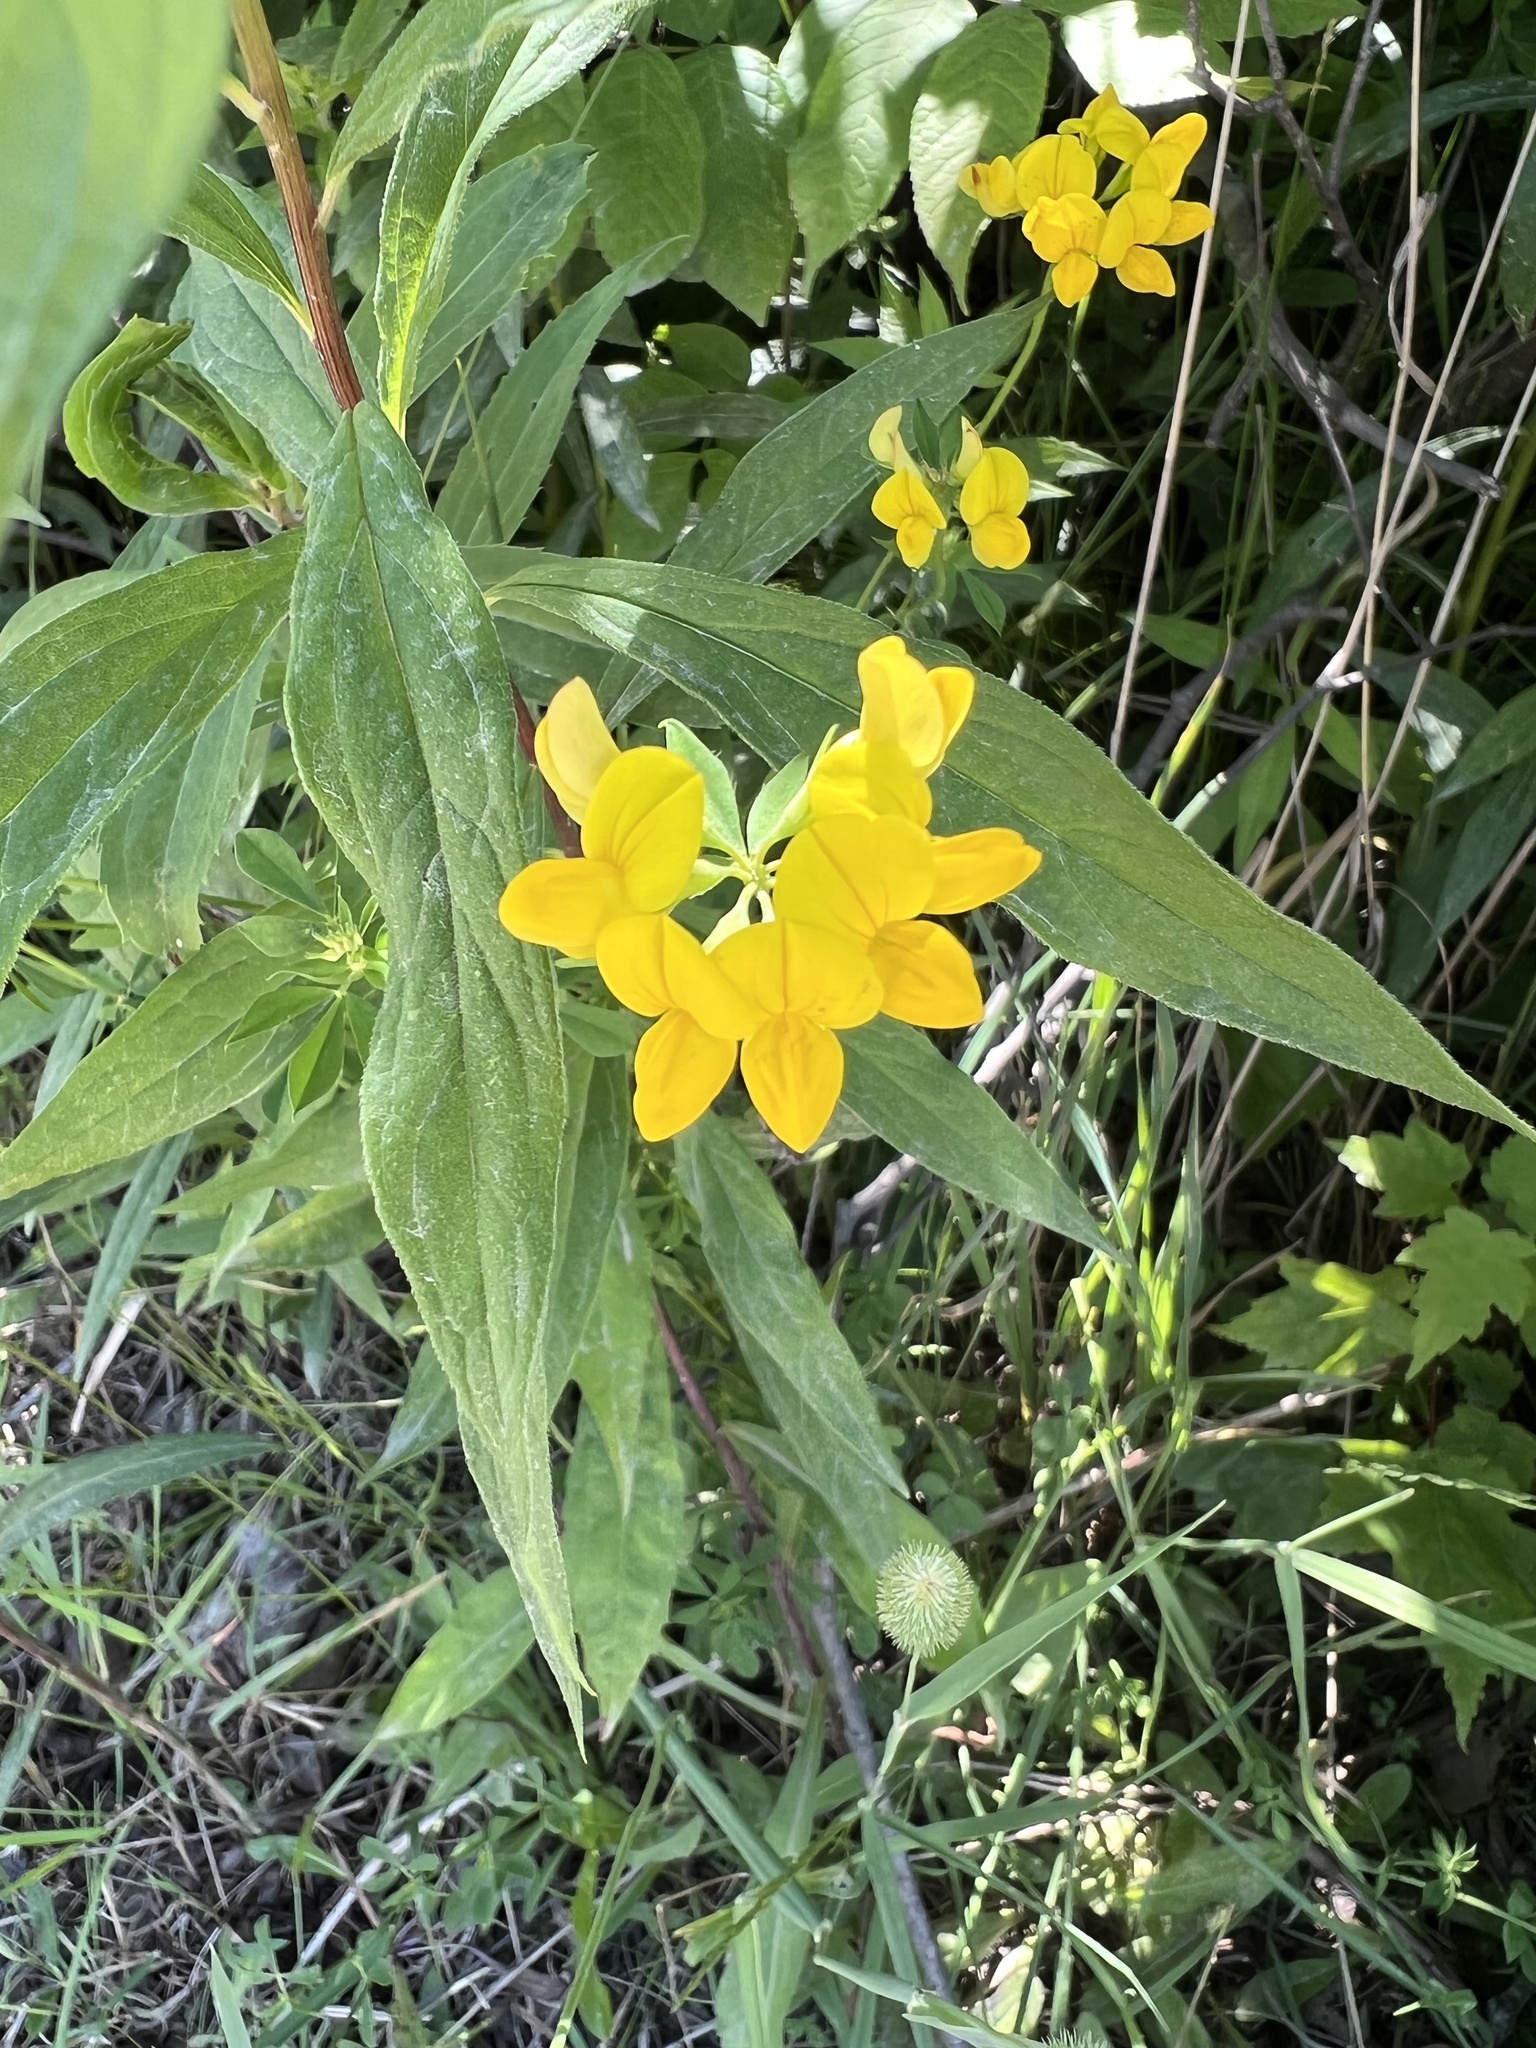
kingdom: Plantae
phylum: Tracheophyta
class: Magnoliopsida
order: Fabales
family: Fabaceae
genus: Lotus
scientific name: Lotus corniculatus
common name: Common bird's-foot-trefoil
